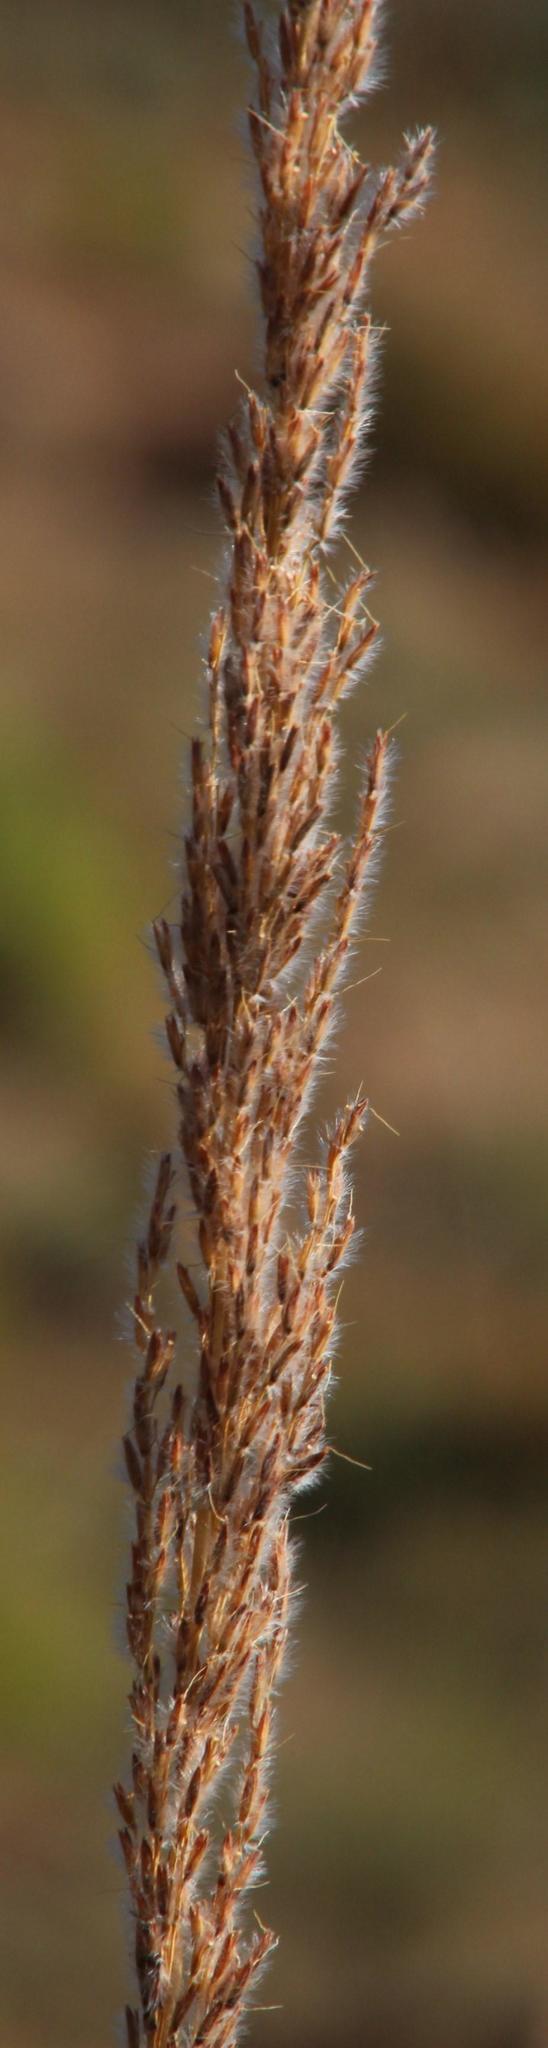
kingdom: Plantae
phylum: Tracheophyta
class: Liliopsida
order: Poales
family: Poaceae
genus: Miscanthus
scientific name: Miscanthus ecklonii
